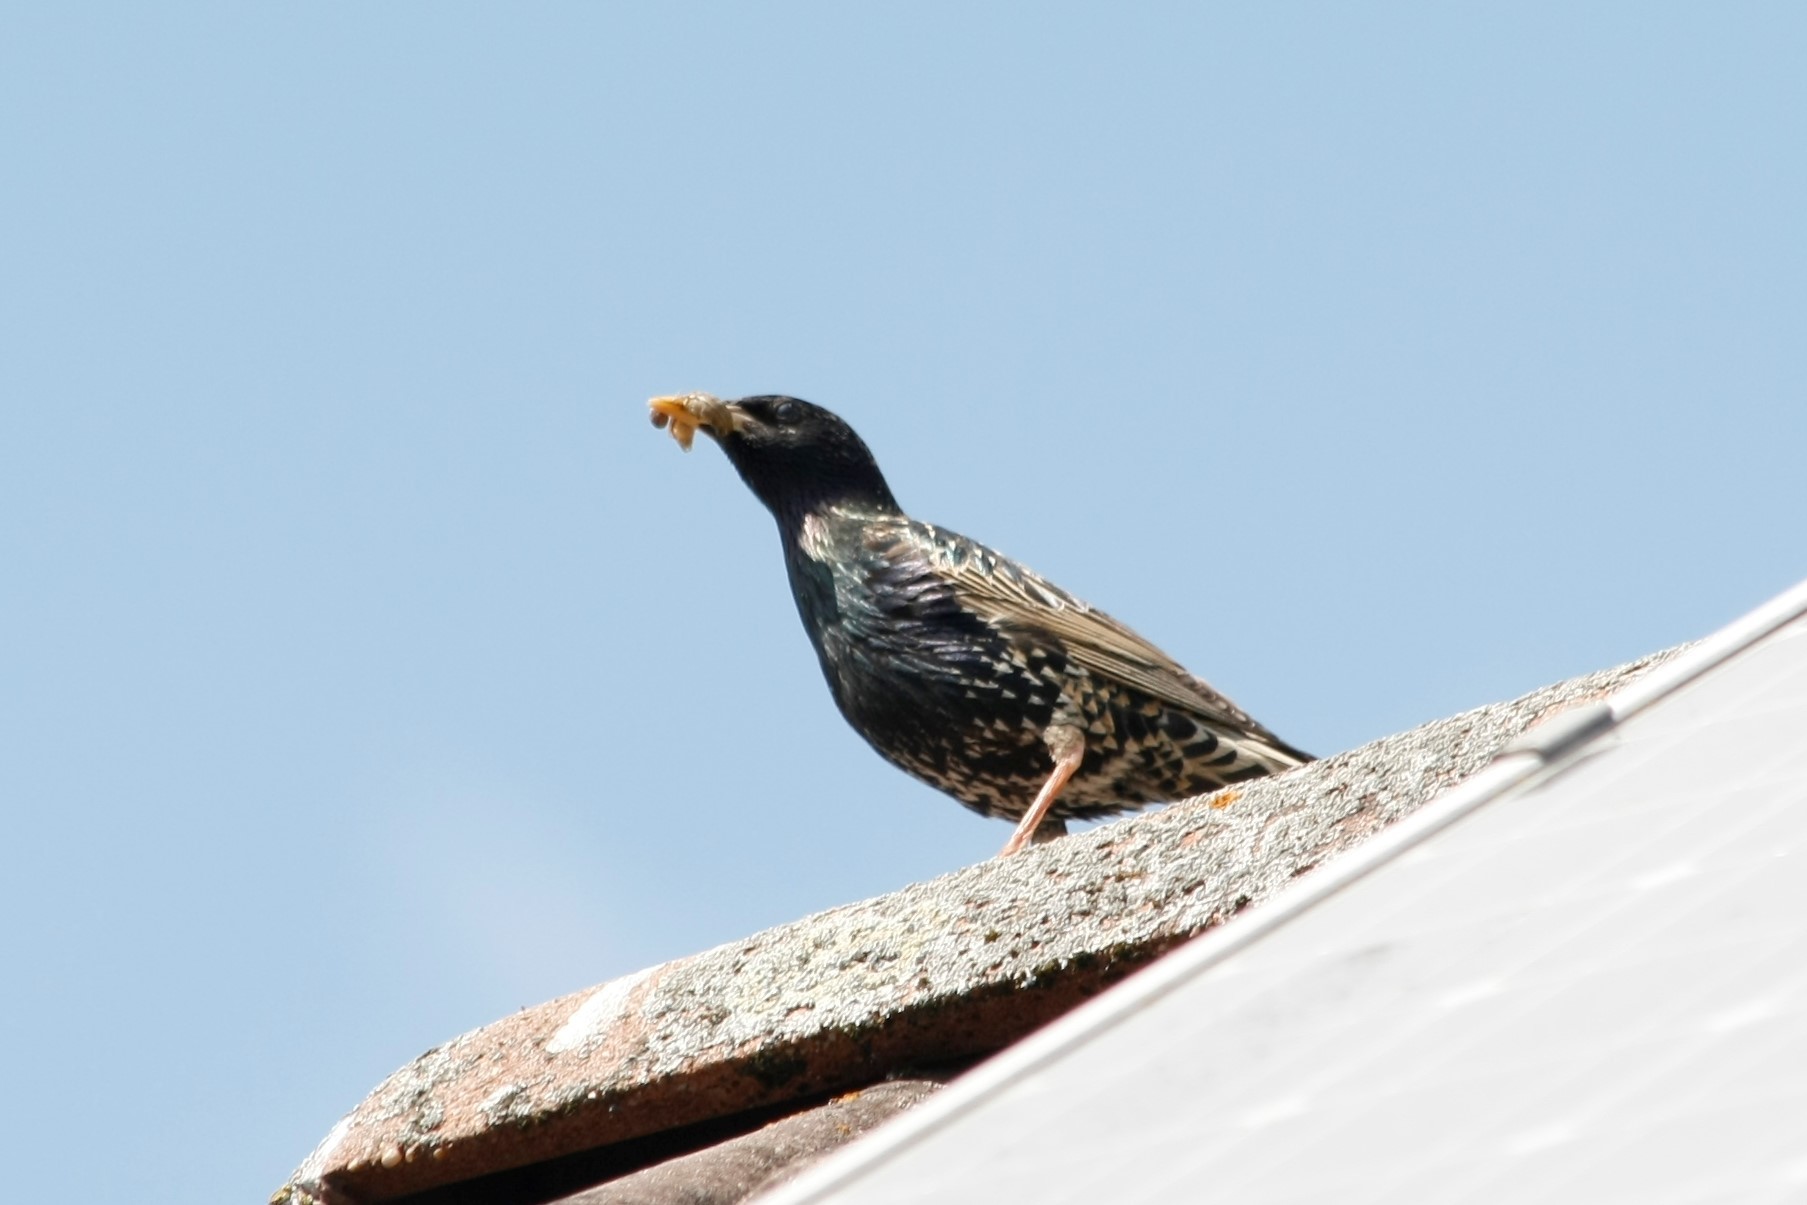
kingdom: Animalia
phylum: Chordata
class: Aves
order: Passeriformes
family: Sturnidae
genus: Sturnus
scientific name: Sturnus vulgaris
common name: Common starling
